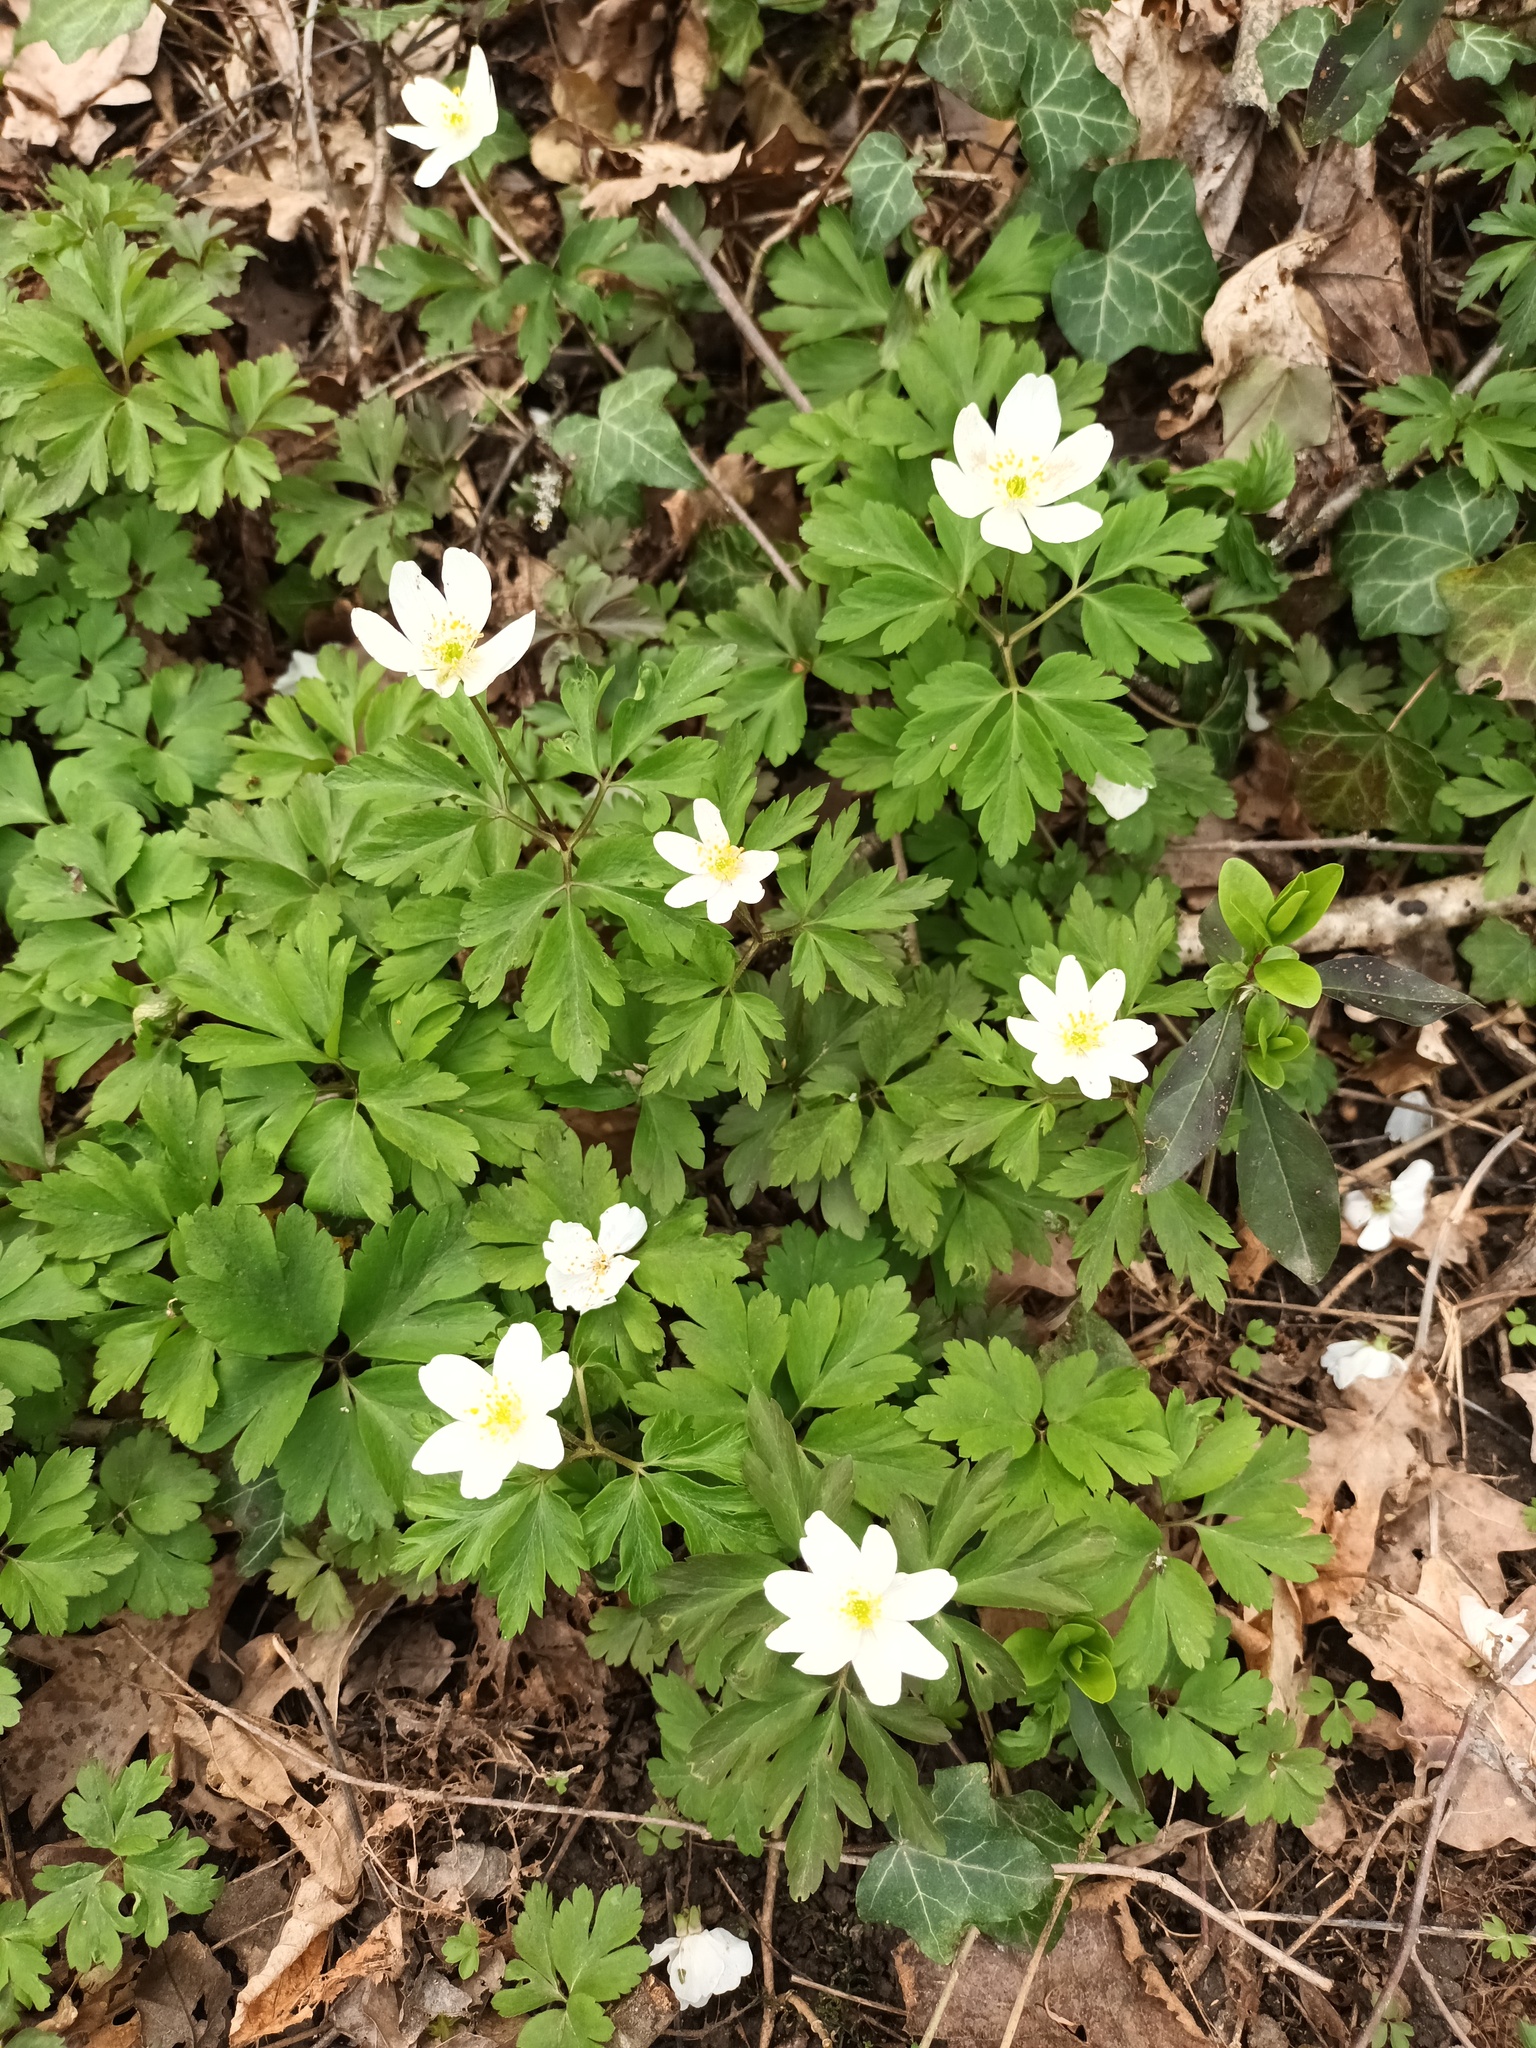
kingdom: Plantae
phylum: Tracheophyta
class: Magnoliopsida
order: Ranunculales
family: Ranunculaceae
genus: Anemone
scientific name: Anemone nemorosa
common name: Wood anemone
